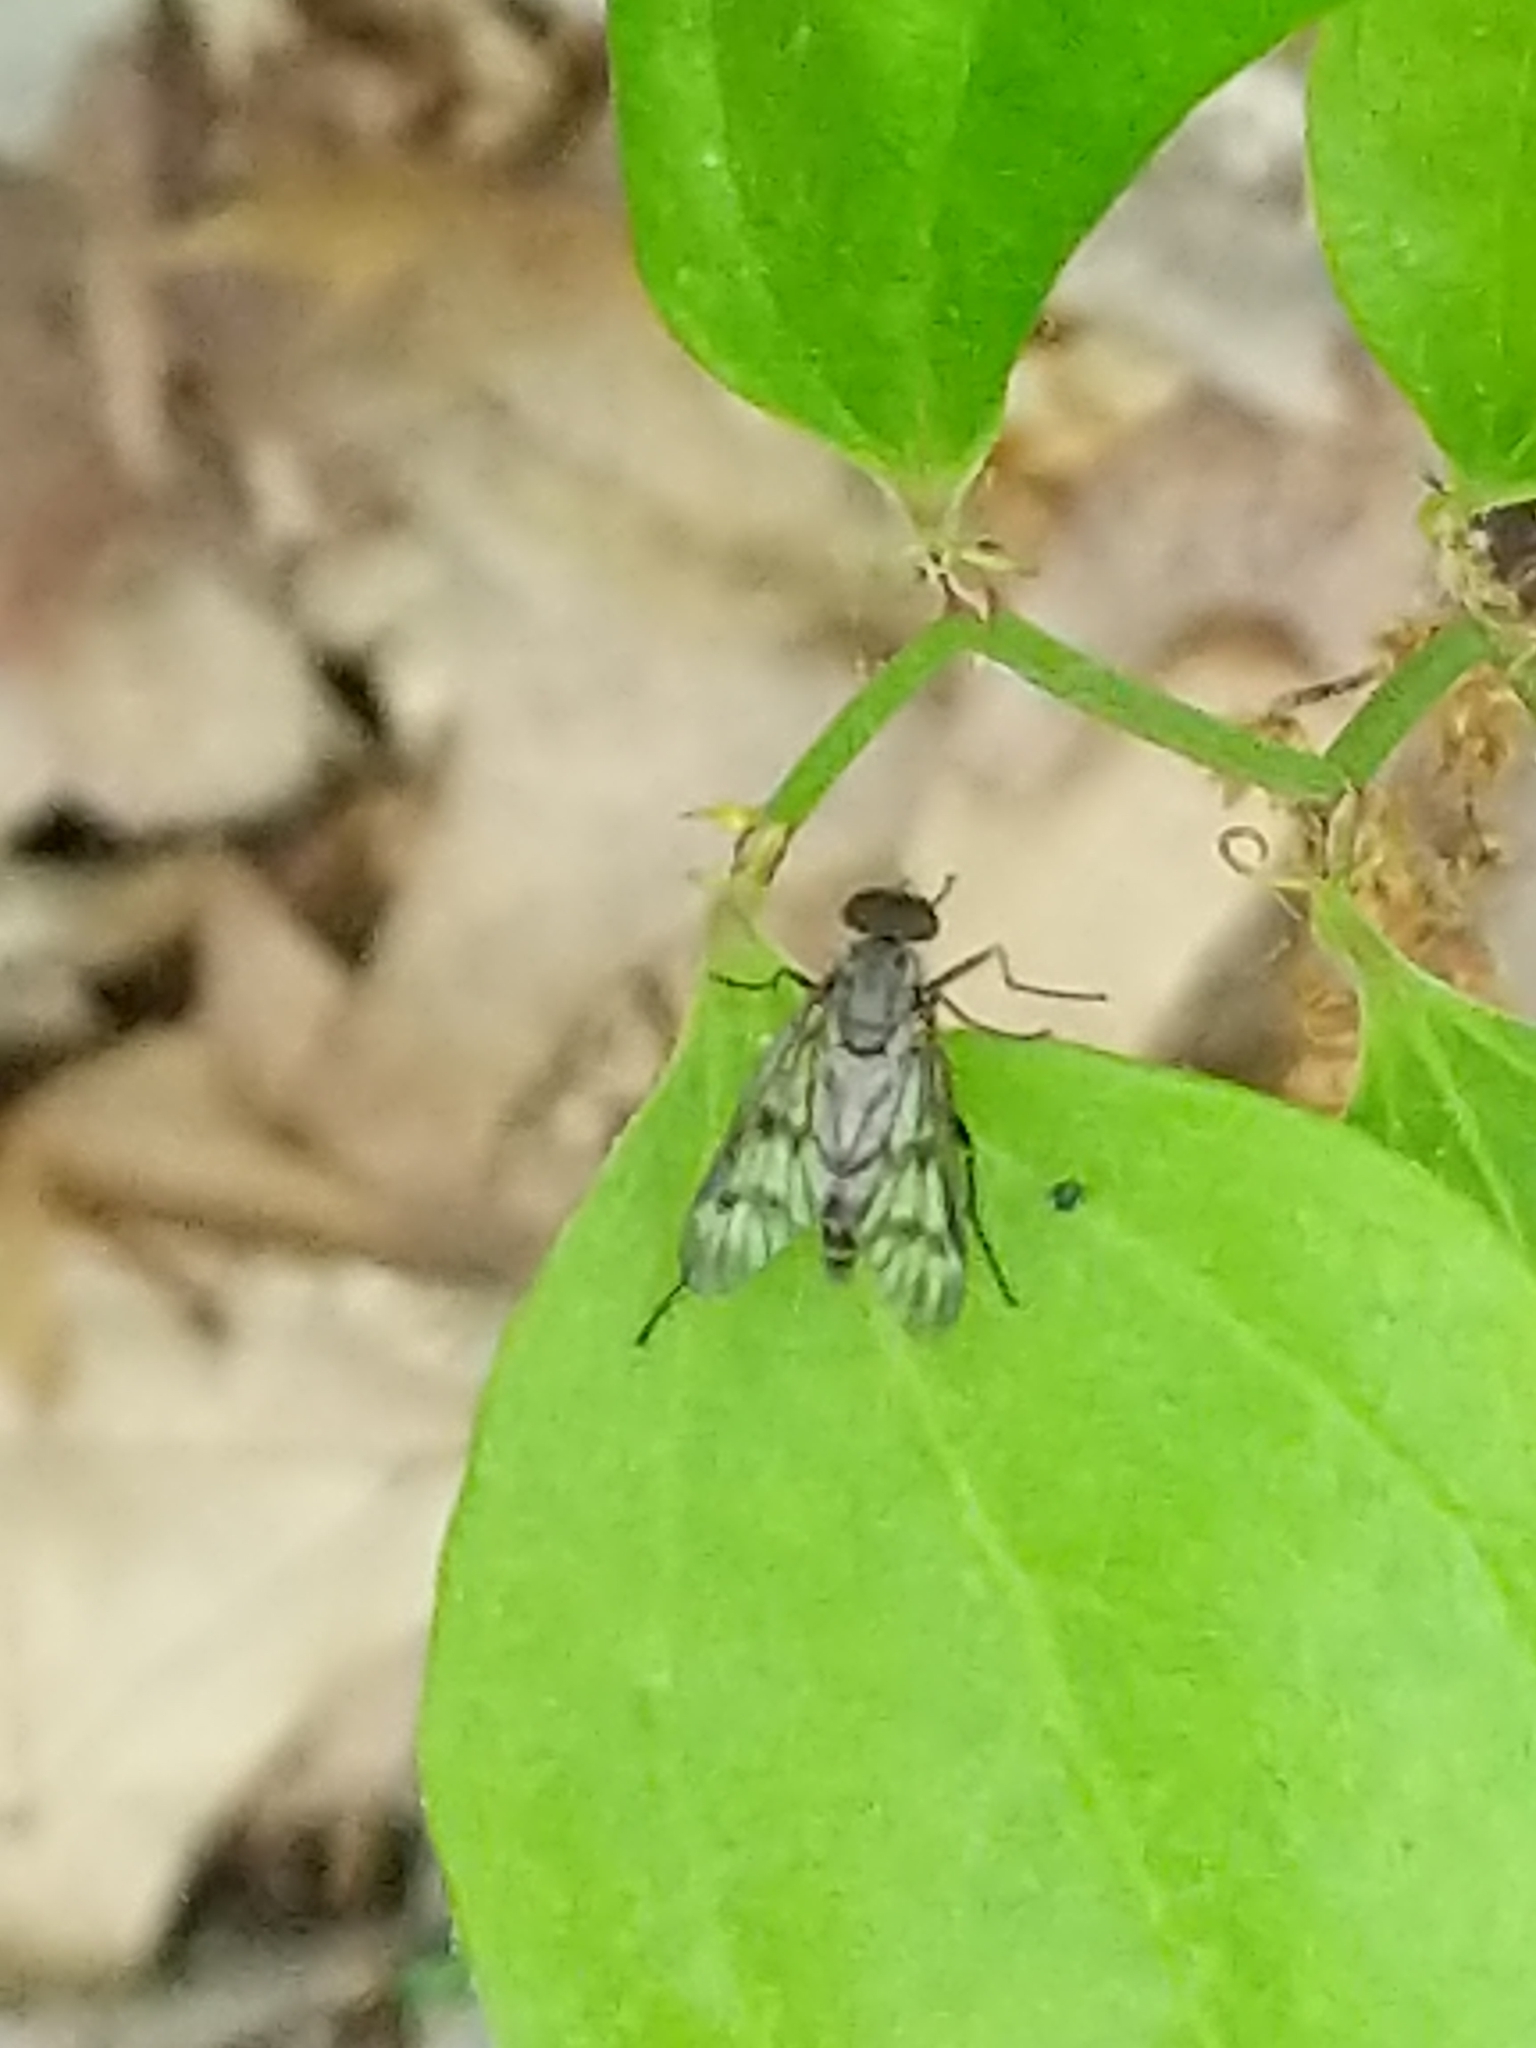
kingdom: Animalia
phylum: Arthropoda
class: Insecta
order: Diptera
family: Rhagionidae
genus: Rhagio
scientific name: Rhagio mystaceus
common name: Common snipe fly
